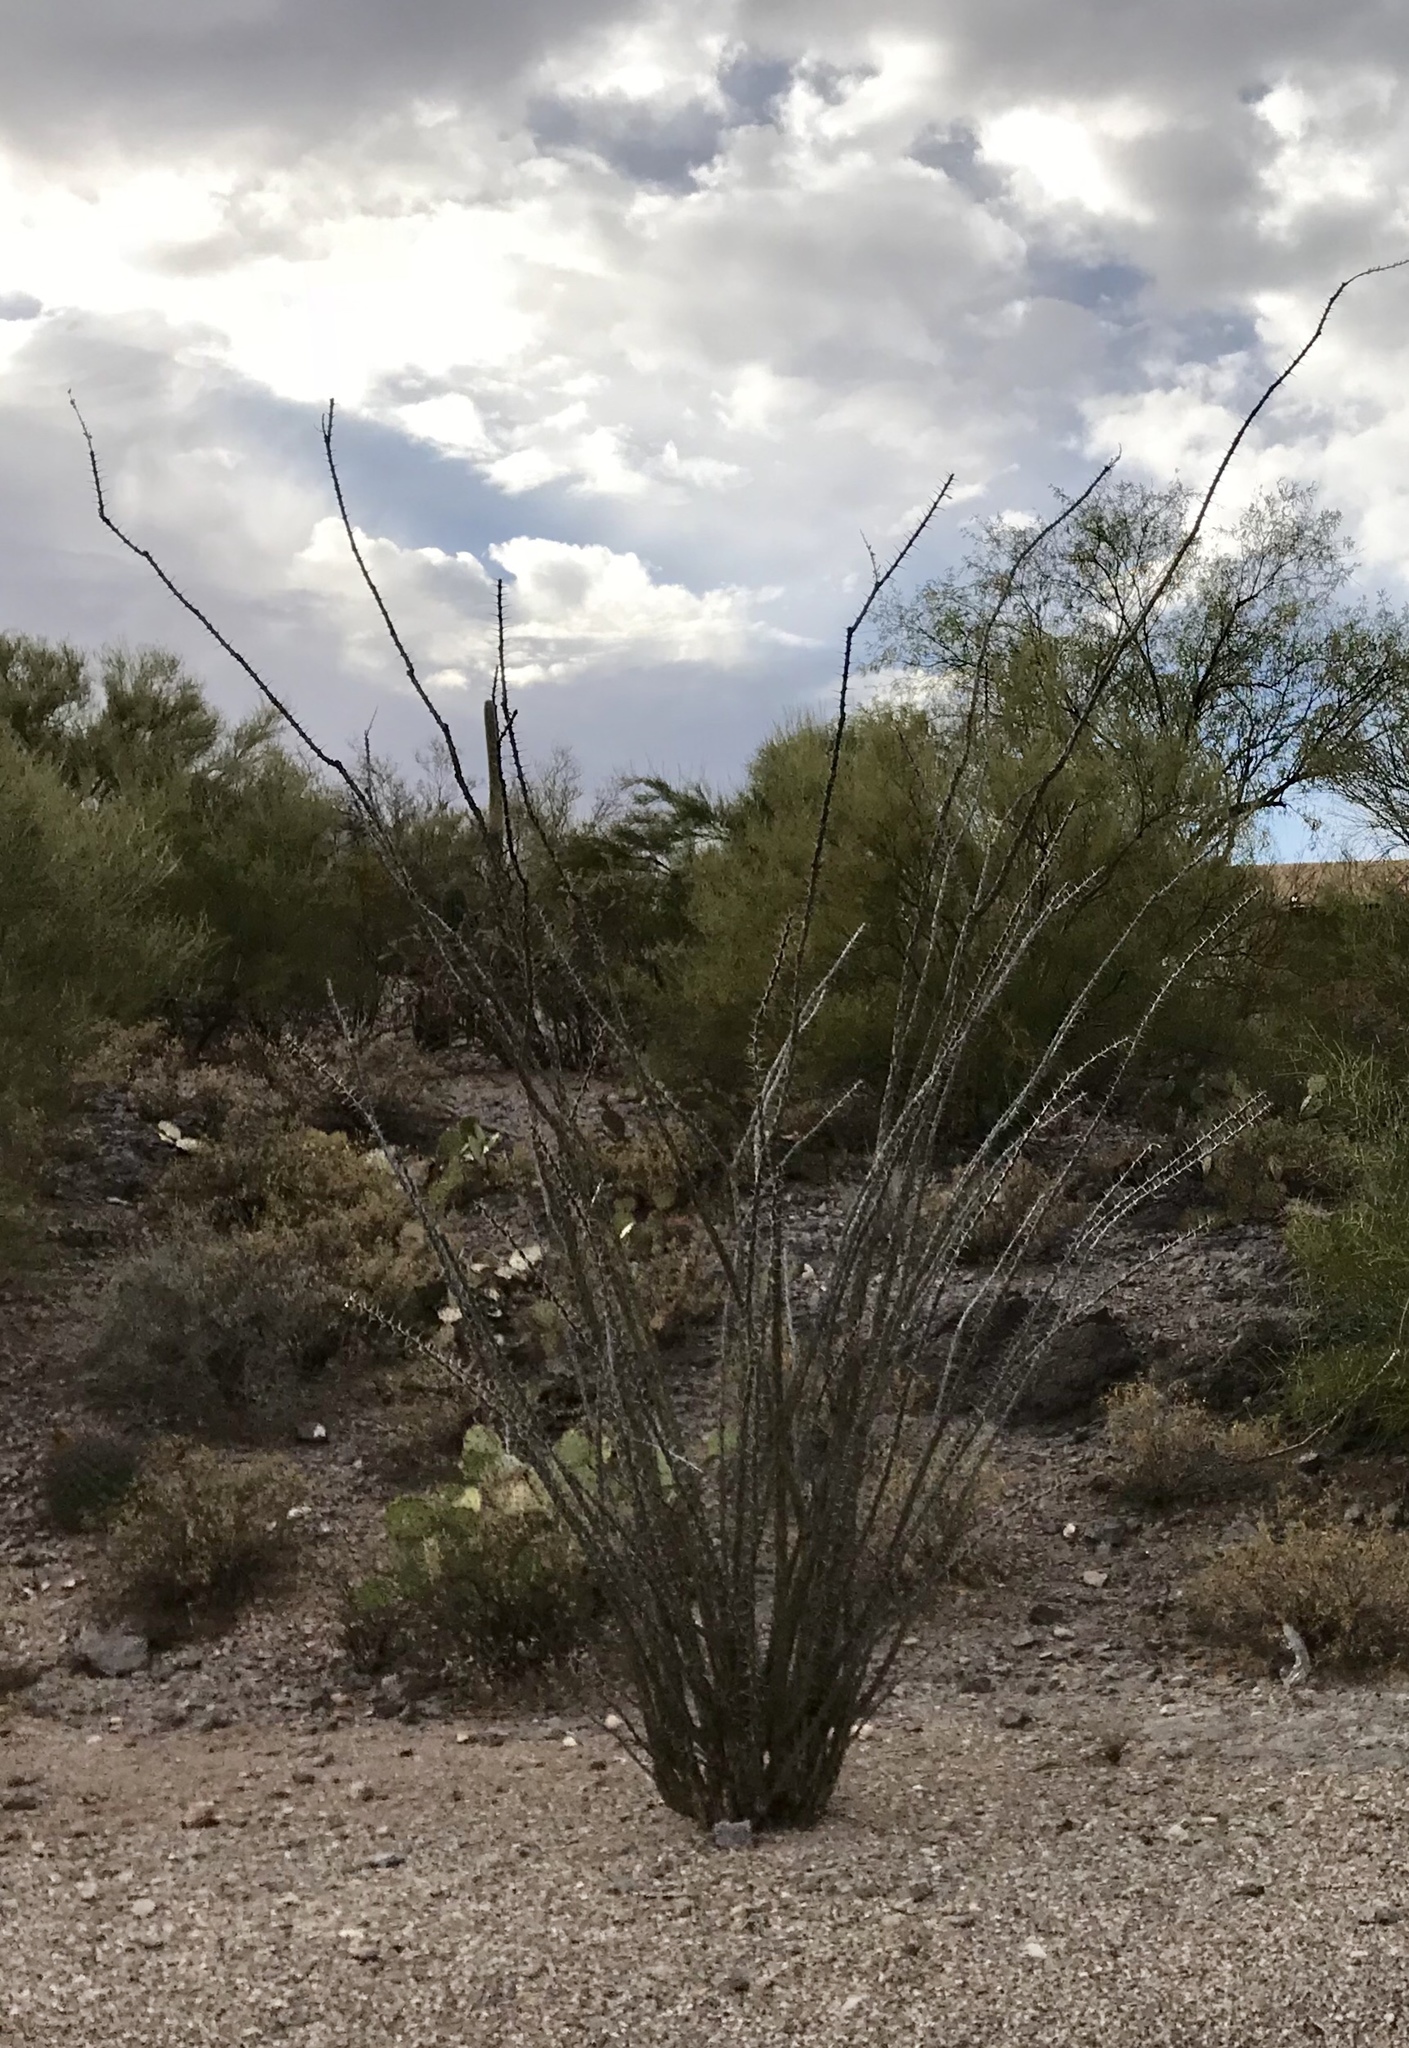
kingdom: Plantae
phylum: Tracheophyta
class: Magnoliopsida
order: Ericales
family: Fouquieriaceae
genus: Fouquieria
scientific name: Fouquieria splendens
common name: Vine-cactus
